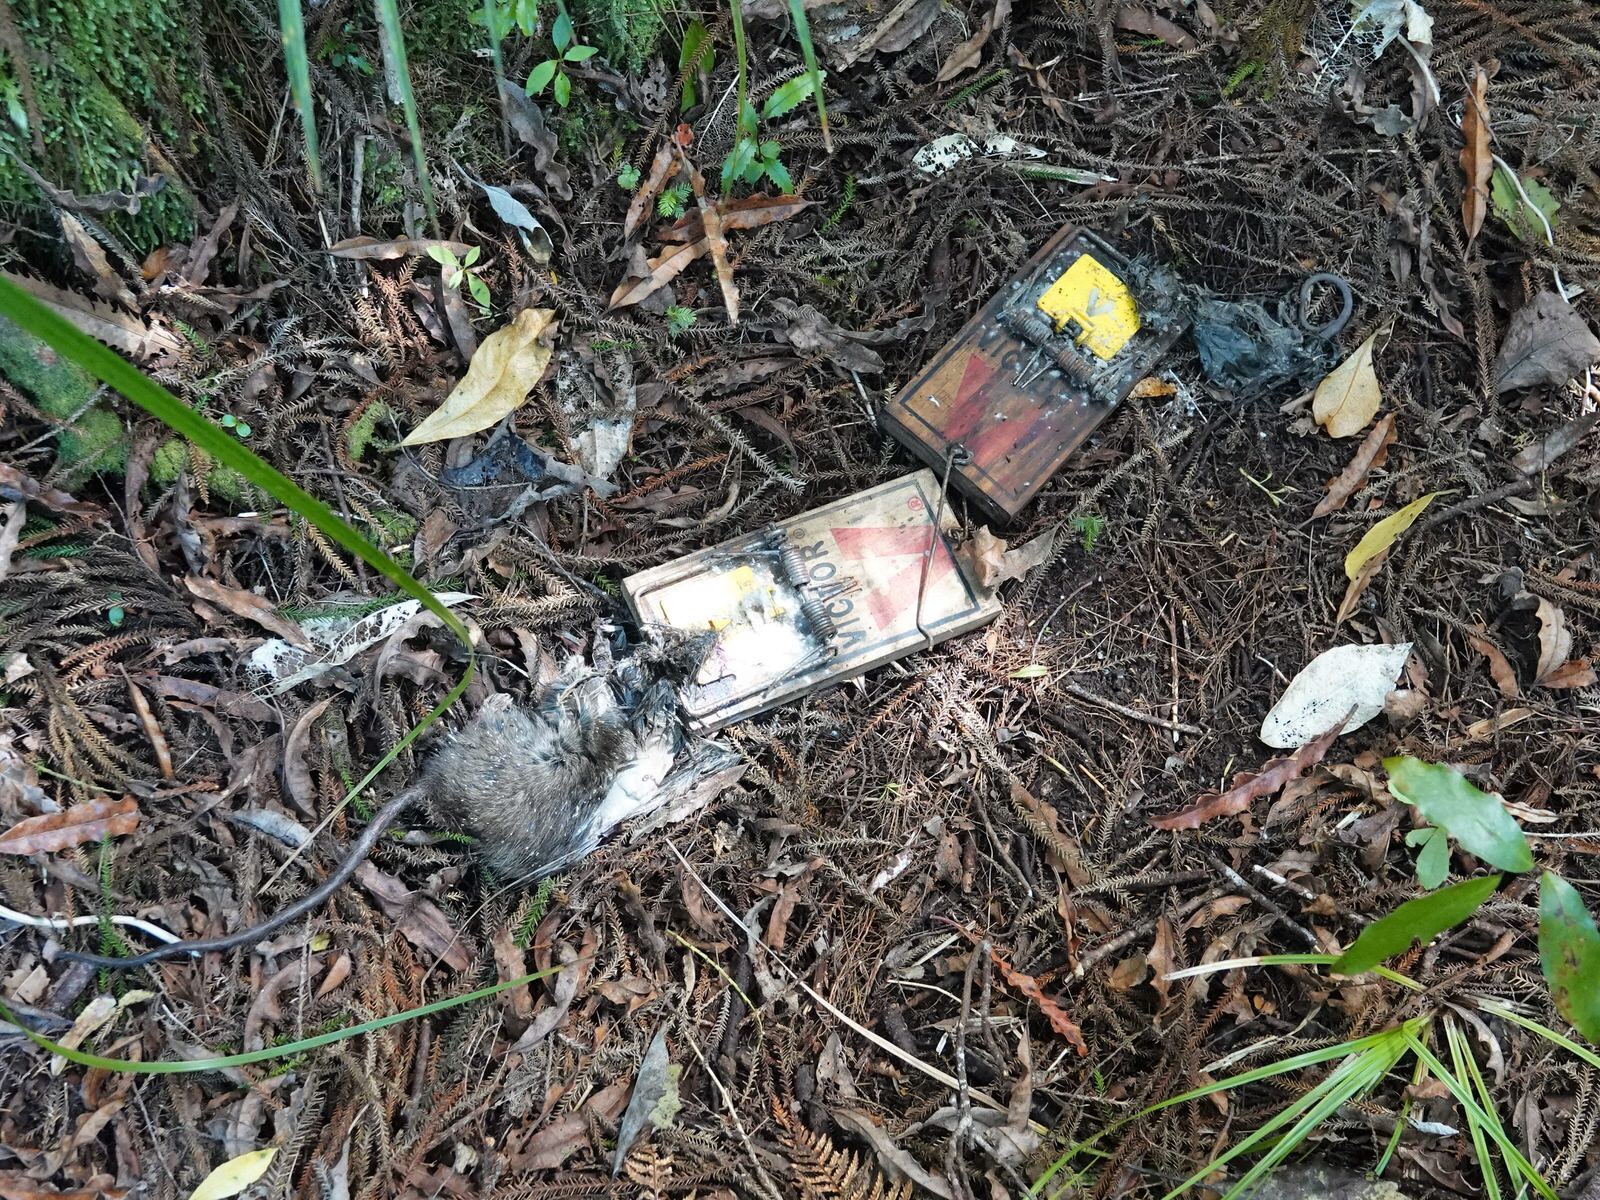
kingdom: Animalia
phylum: Chordata
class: Mammalia
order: Rodentia
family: Muridae
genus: Rattus
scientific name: Rattus rattus
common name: Black rat
